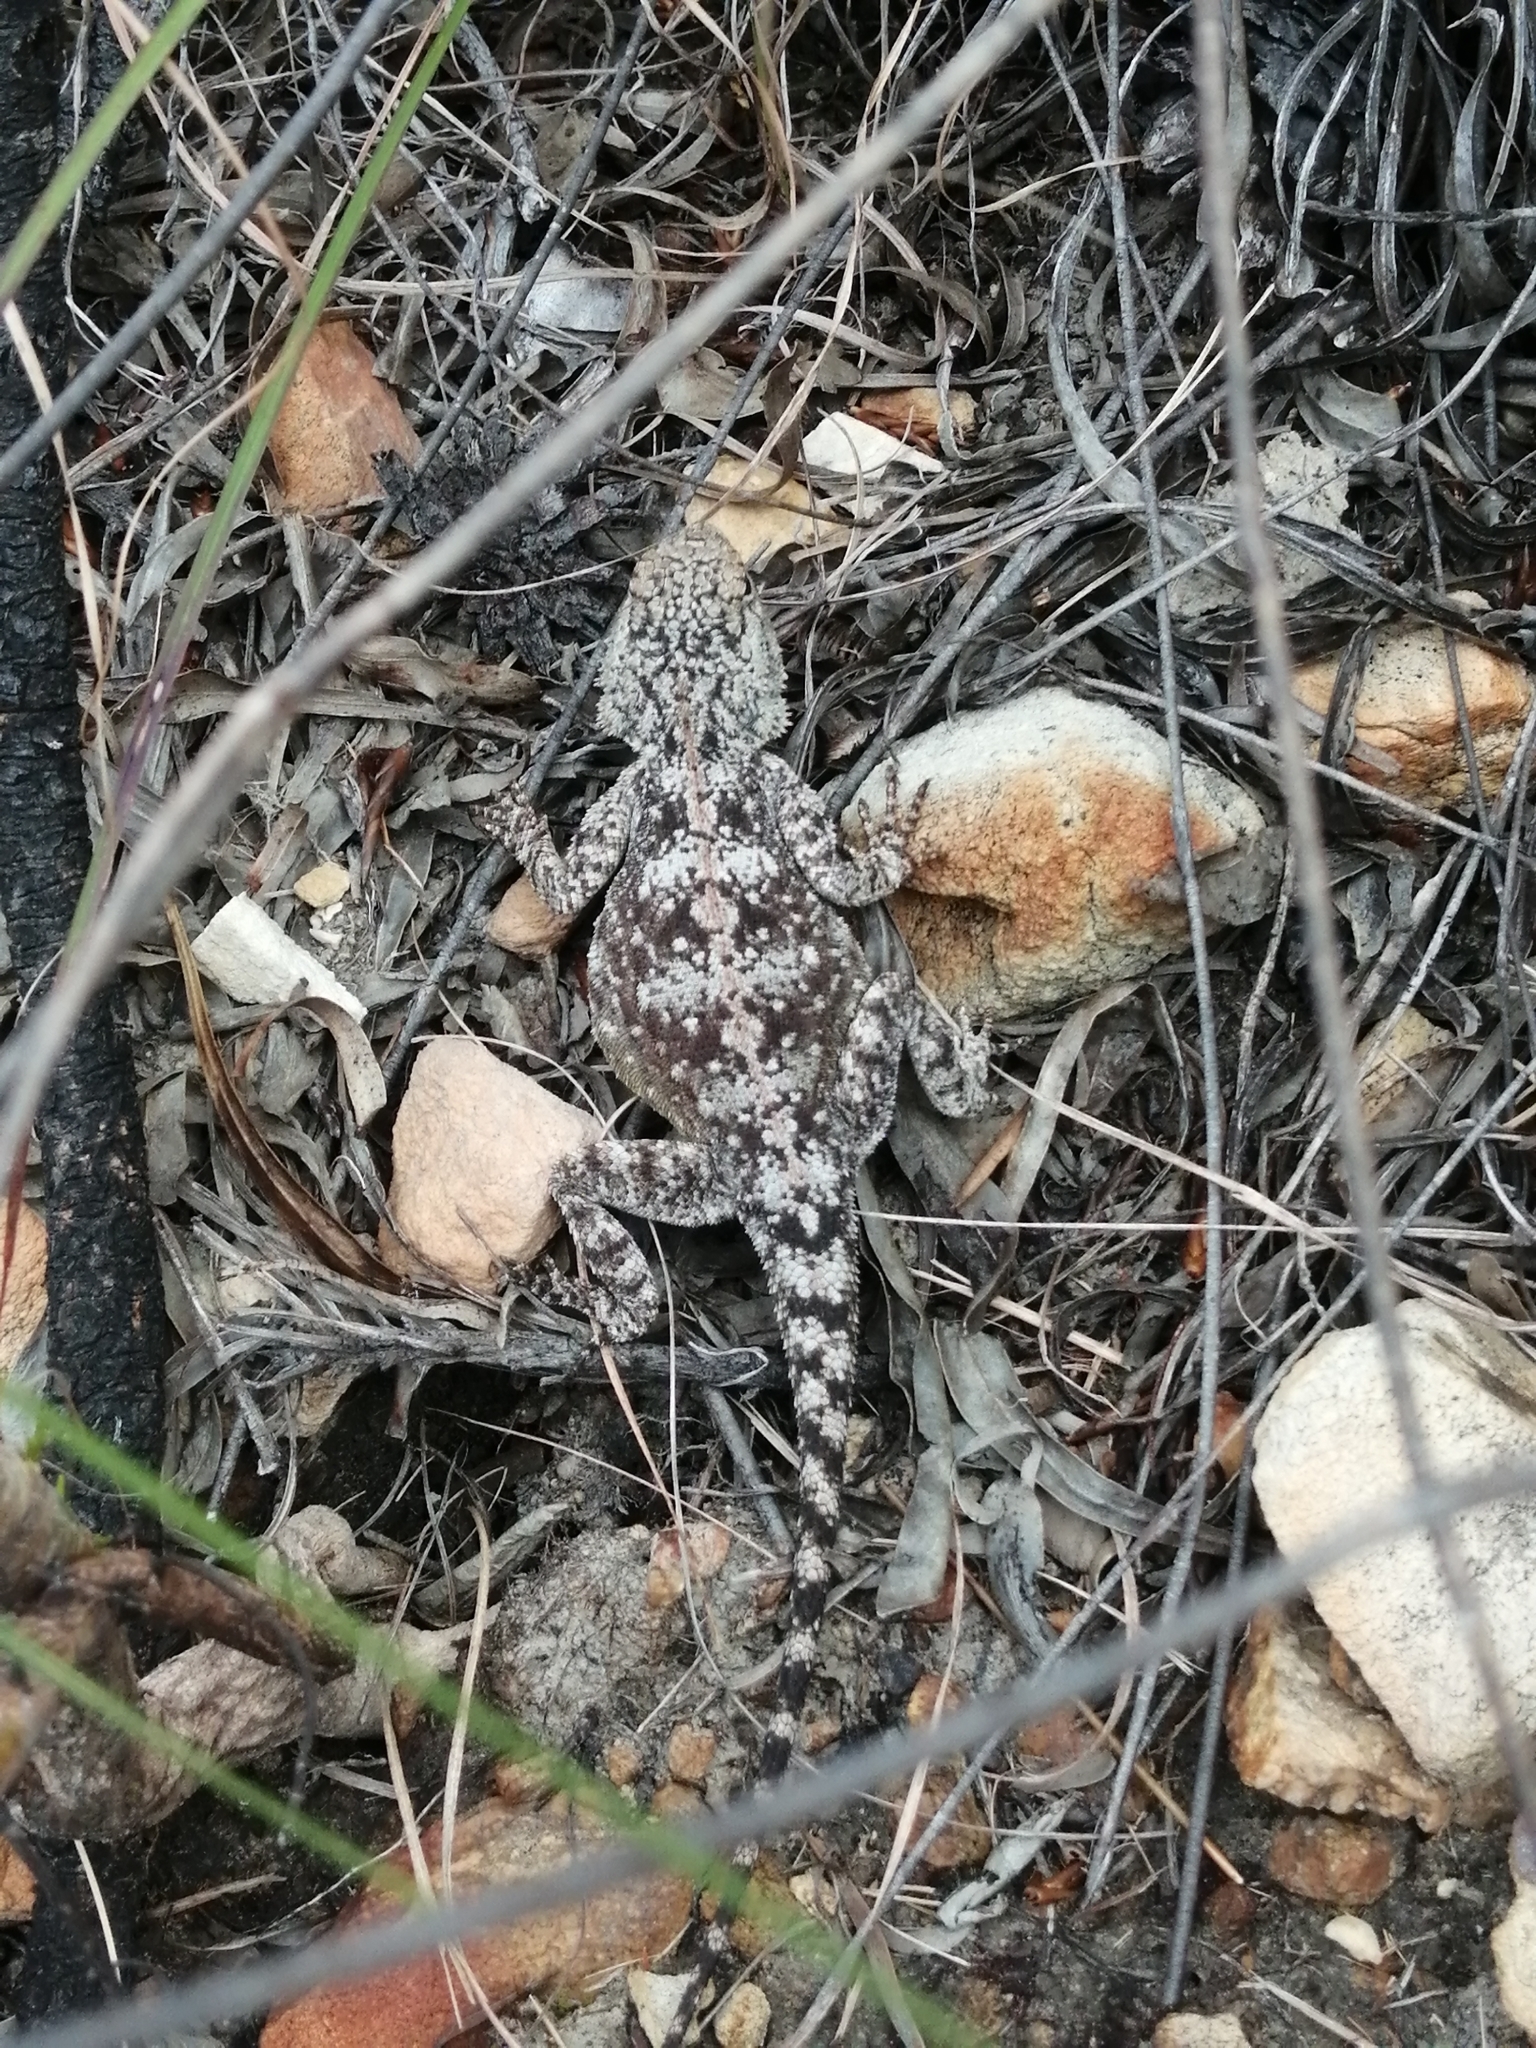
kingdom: Animalia
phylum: Chordata
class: Squamata
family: Agamidae
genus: Agama
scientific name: Agama atra
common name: Southern african rock agama
